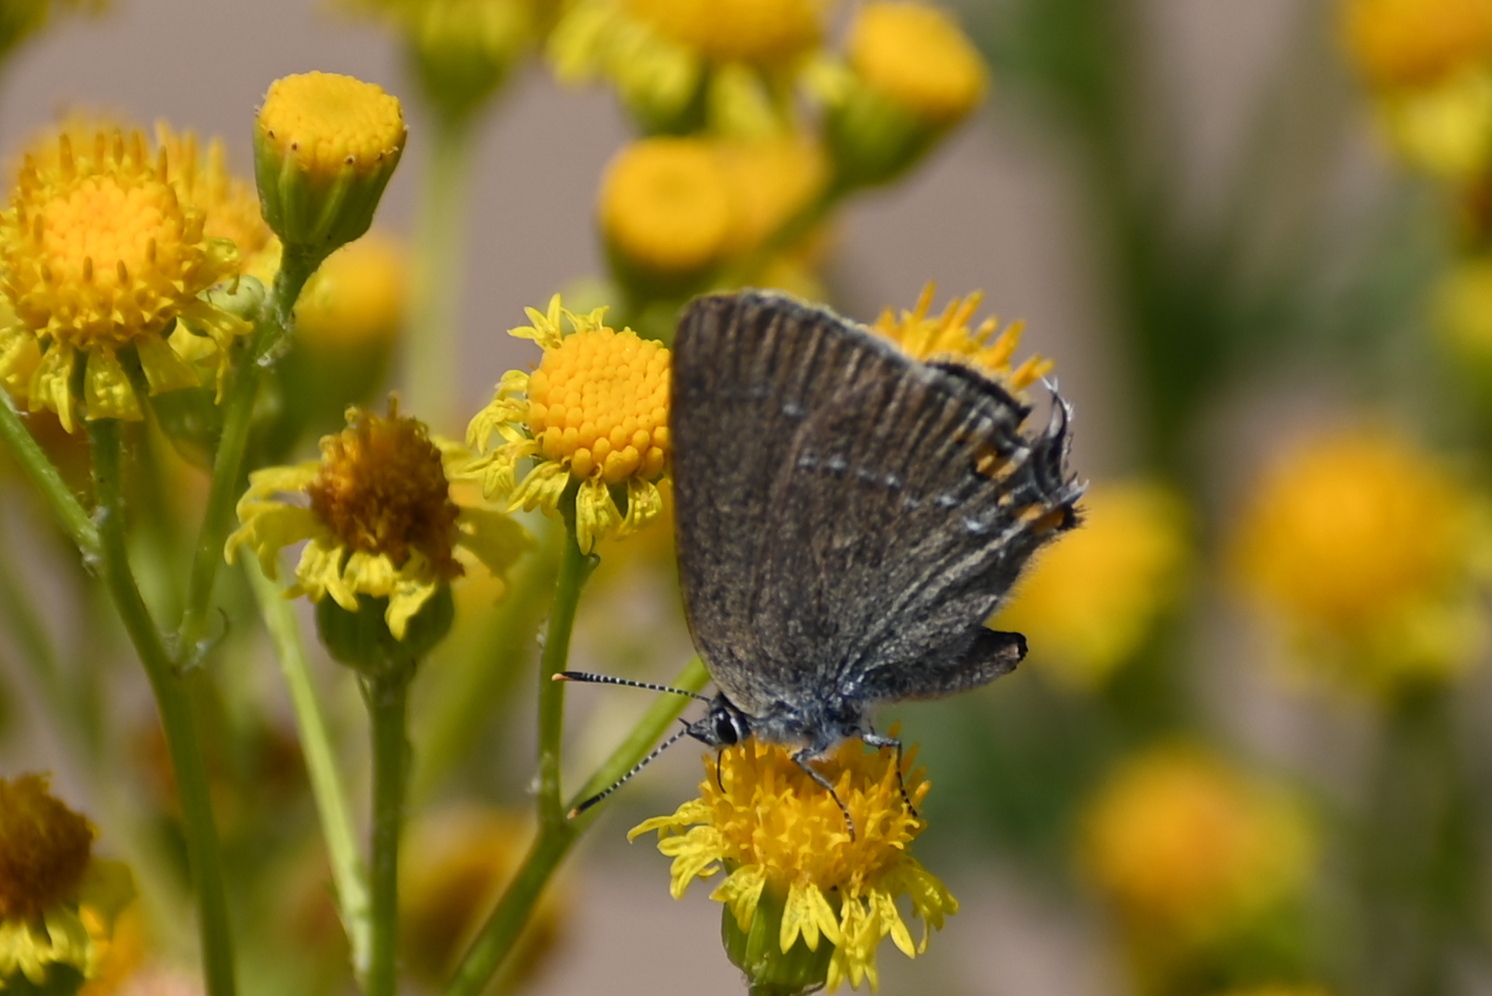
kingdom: Animalia
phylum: Arthropoda
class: Insecta
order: Lepidoptera
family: Lycaenidae
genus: Strymon
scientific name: Strymon acaciae
